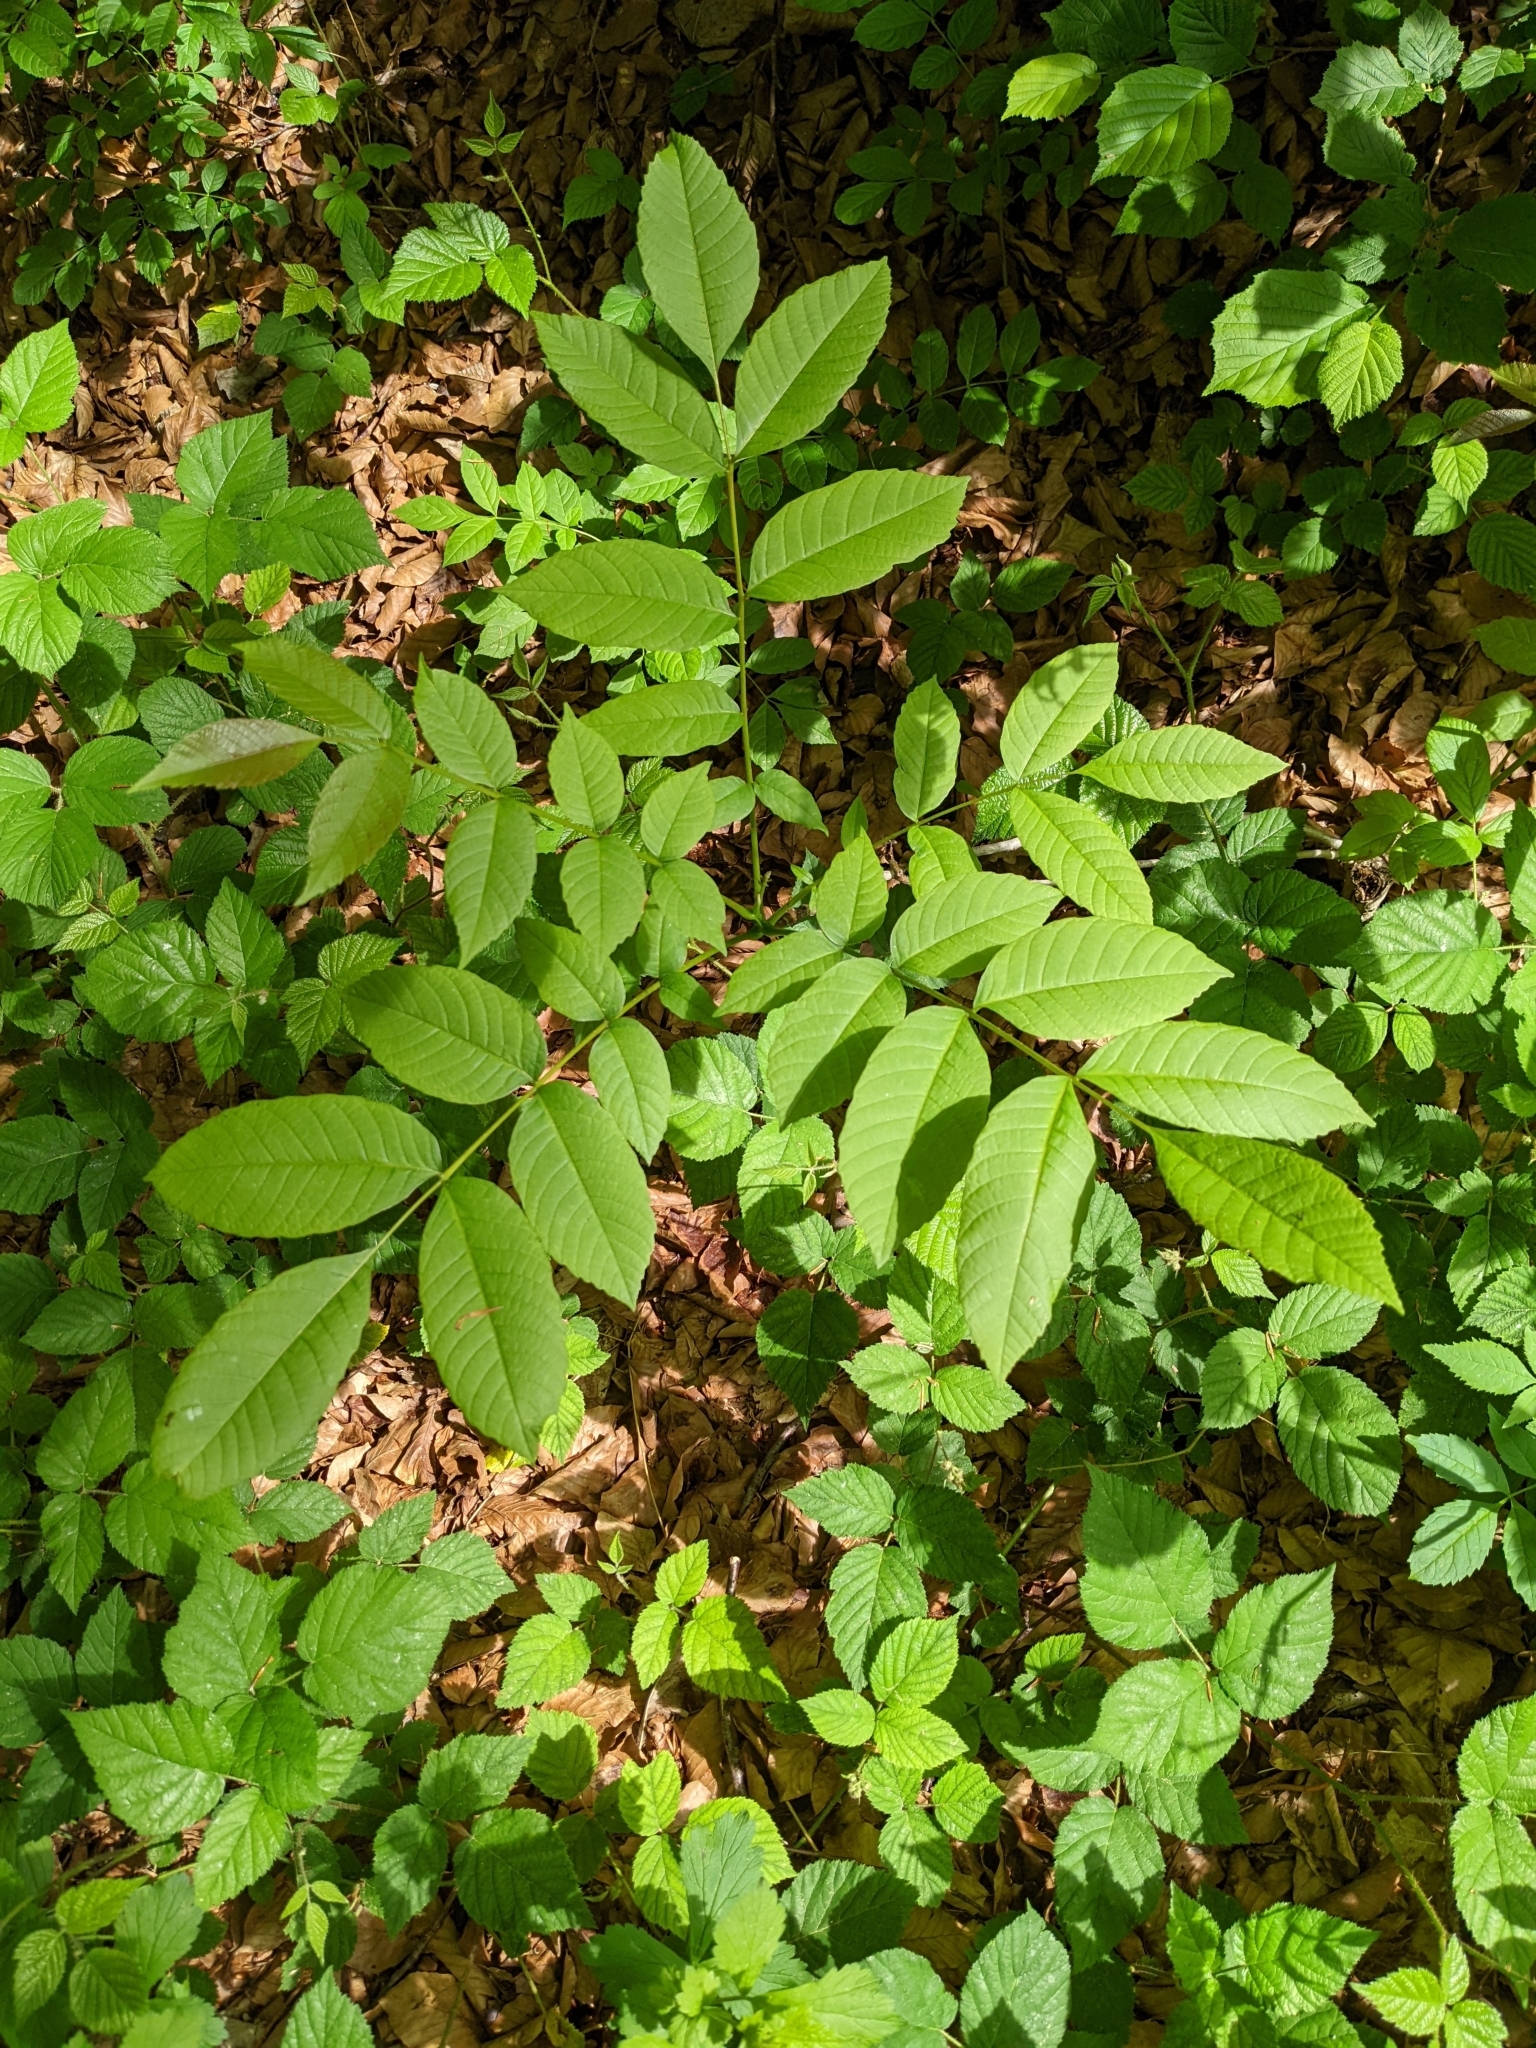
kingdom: Plantae
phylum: Tracheophyta
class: Magnoliopsida
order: Fagales
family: Juglandaceae
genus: Juglans
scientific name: Juglans regia
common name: Walnut
